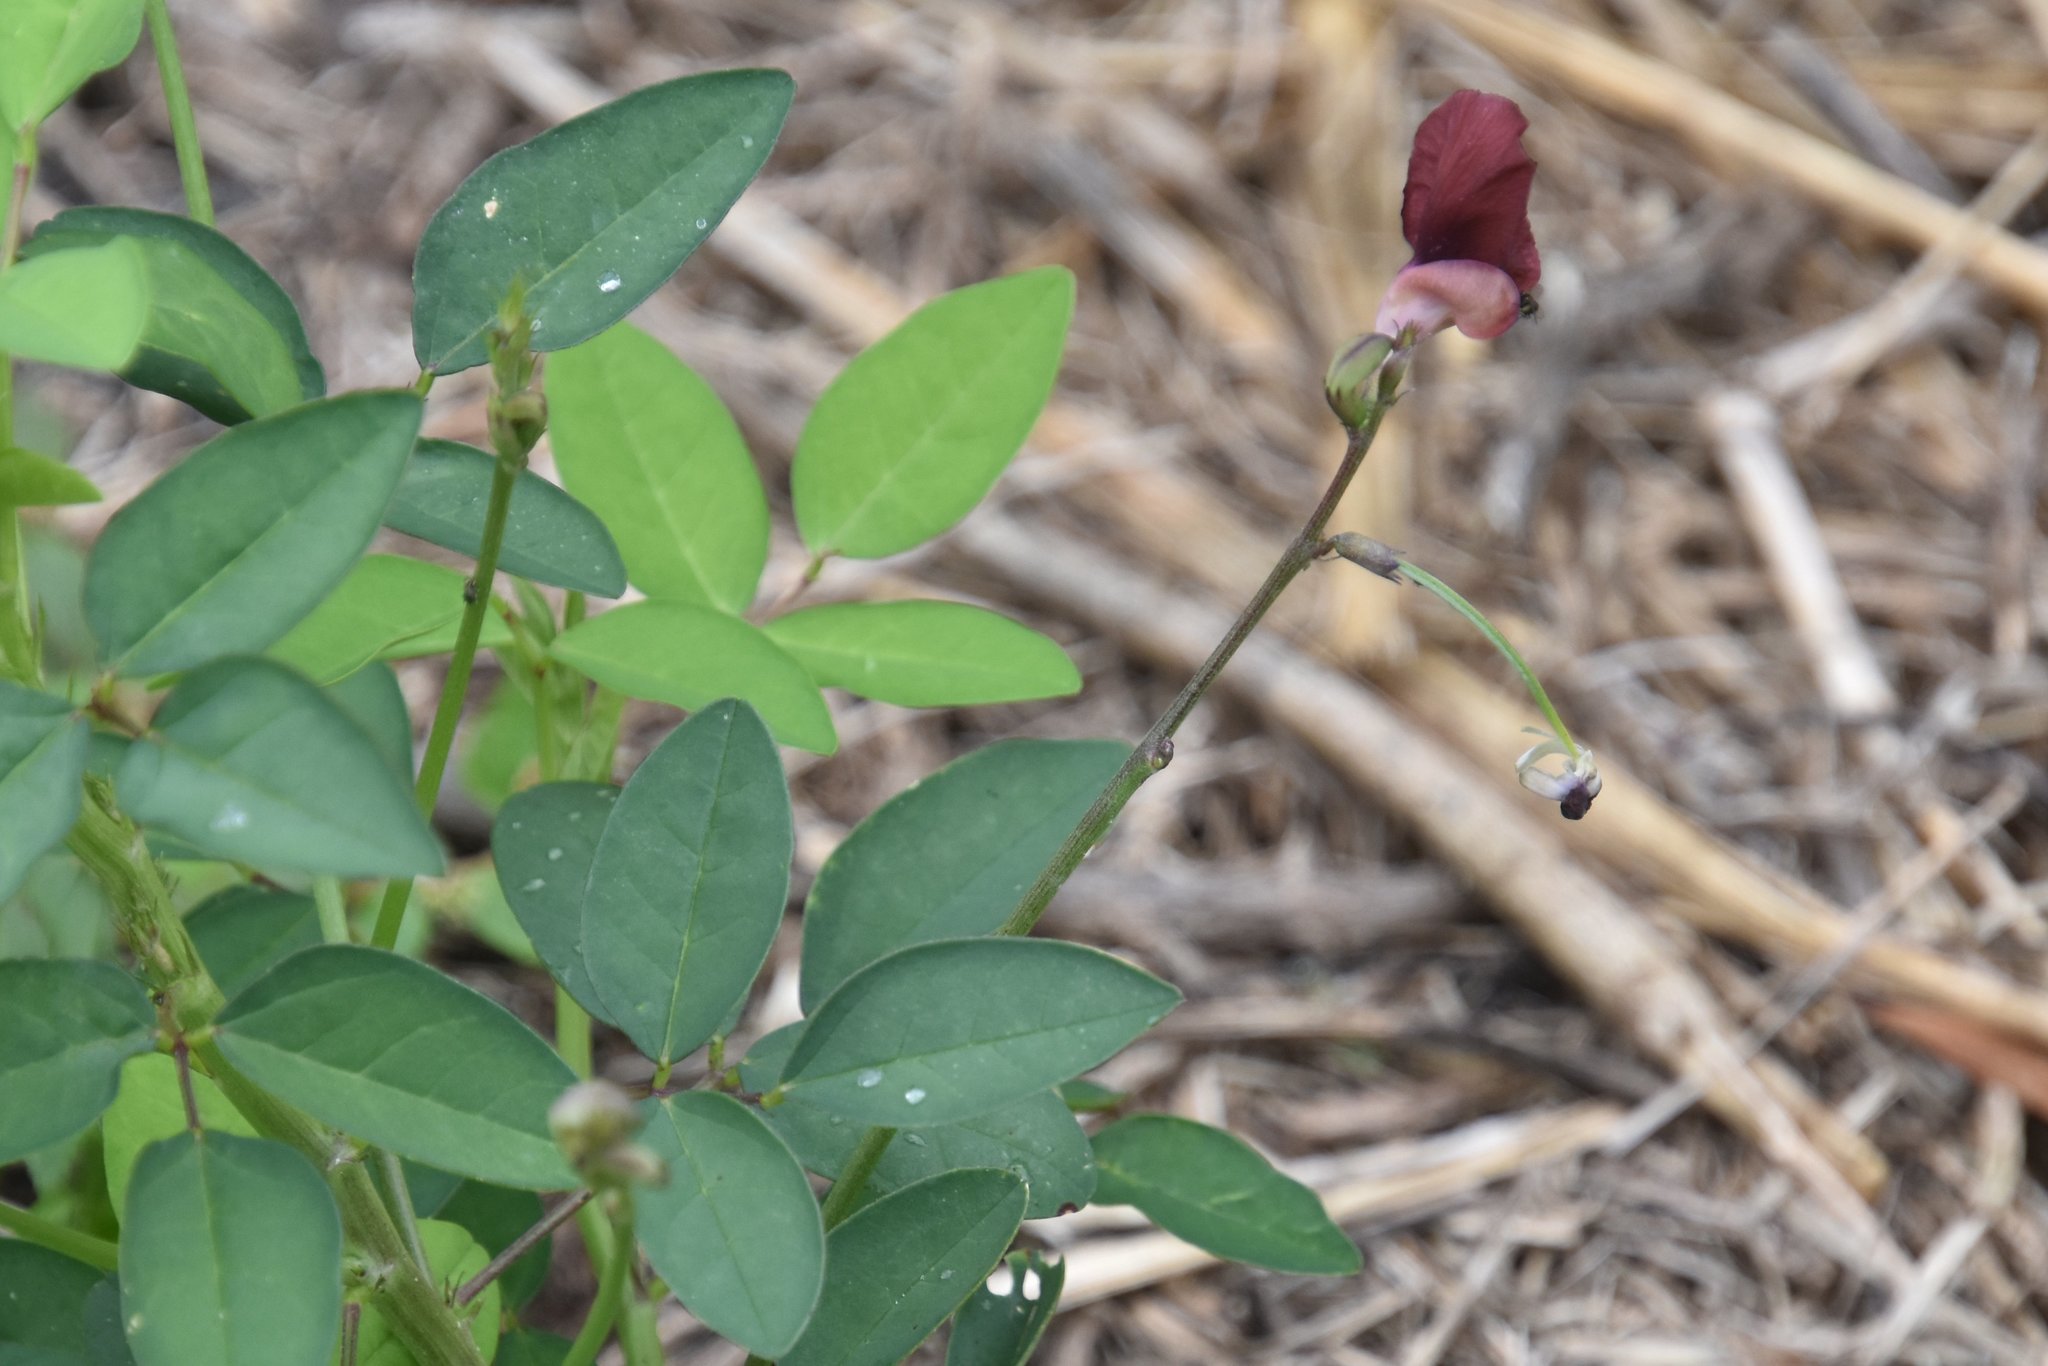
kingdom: Plantae
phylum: Tracheophyta
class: Magnoliopsida
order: Fabales
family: Fabaceae
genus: Macroptilium
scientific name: Macroptilium lathyroides
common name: Wild bushbean
